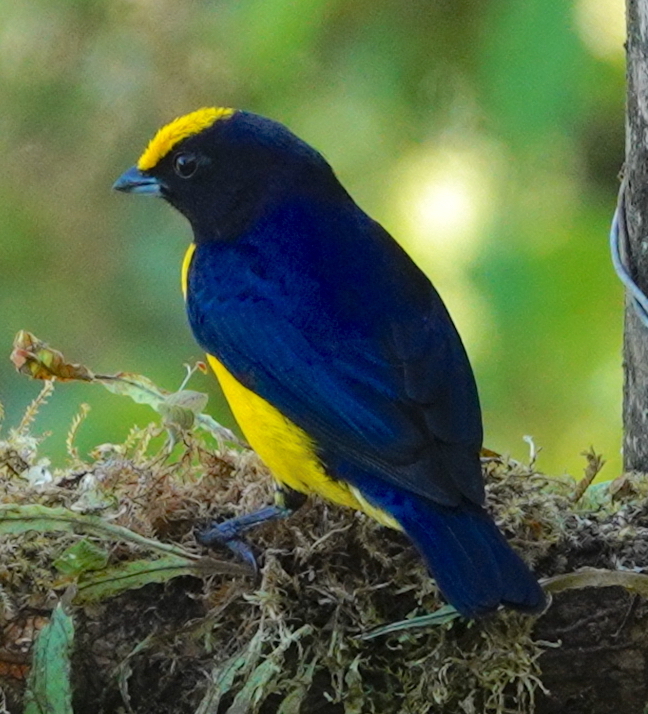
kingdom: Animalia
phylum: Chordata
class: Aves
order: Passeriformes
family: Fringillidae
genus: Euphonia
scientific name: Euphonia xanthogaster
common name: Orange-bellied euphonia
